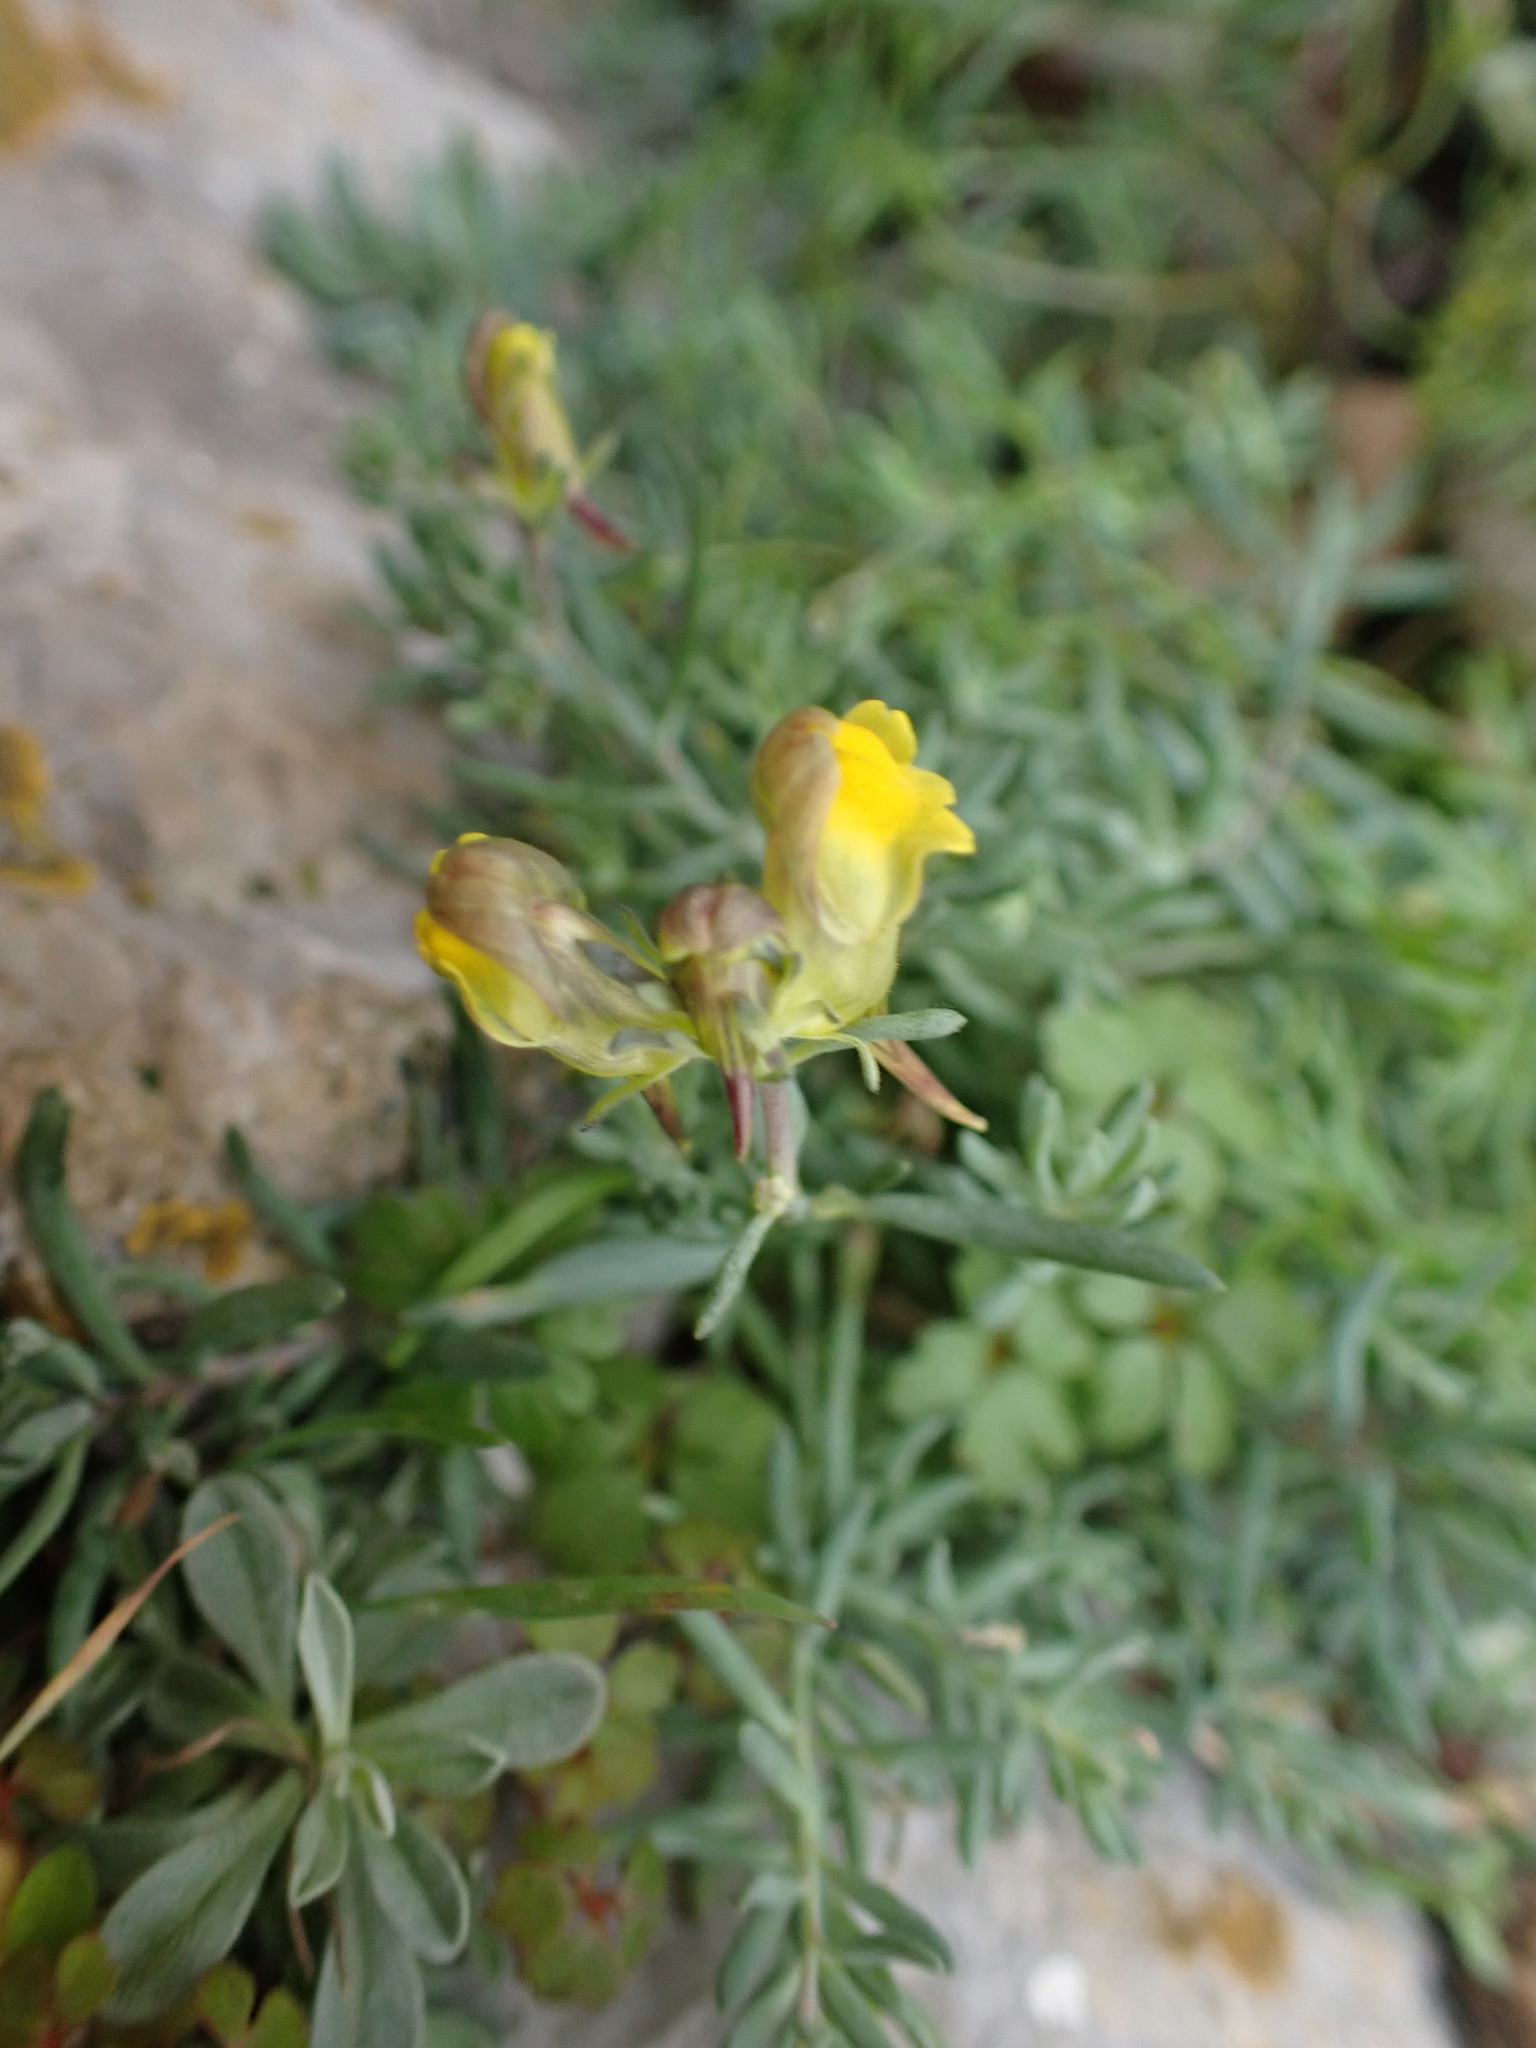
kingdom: Plantae
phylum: Tracheophyta
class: Magnoliopsida
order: Lamiales
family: Plantaginaceae
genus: Linaria
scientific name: Linaria supina
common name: Prostrate toadflax
